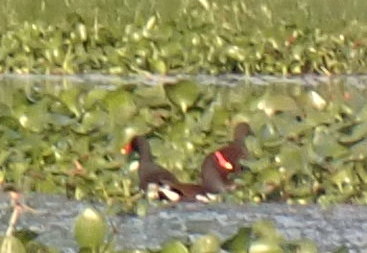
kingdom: Animalia
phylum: Chordata
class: Aves
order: Gruiformes
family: Rallidae
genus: Gallinula
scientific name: Gallinula chloropus
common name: Common moorhen
